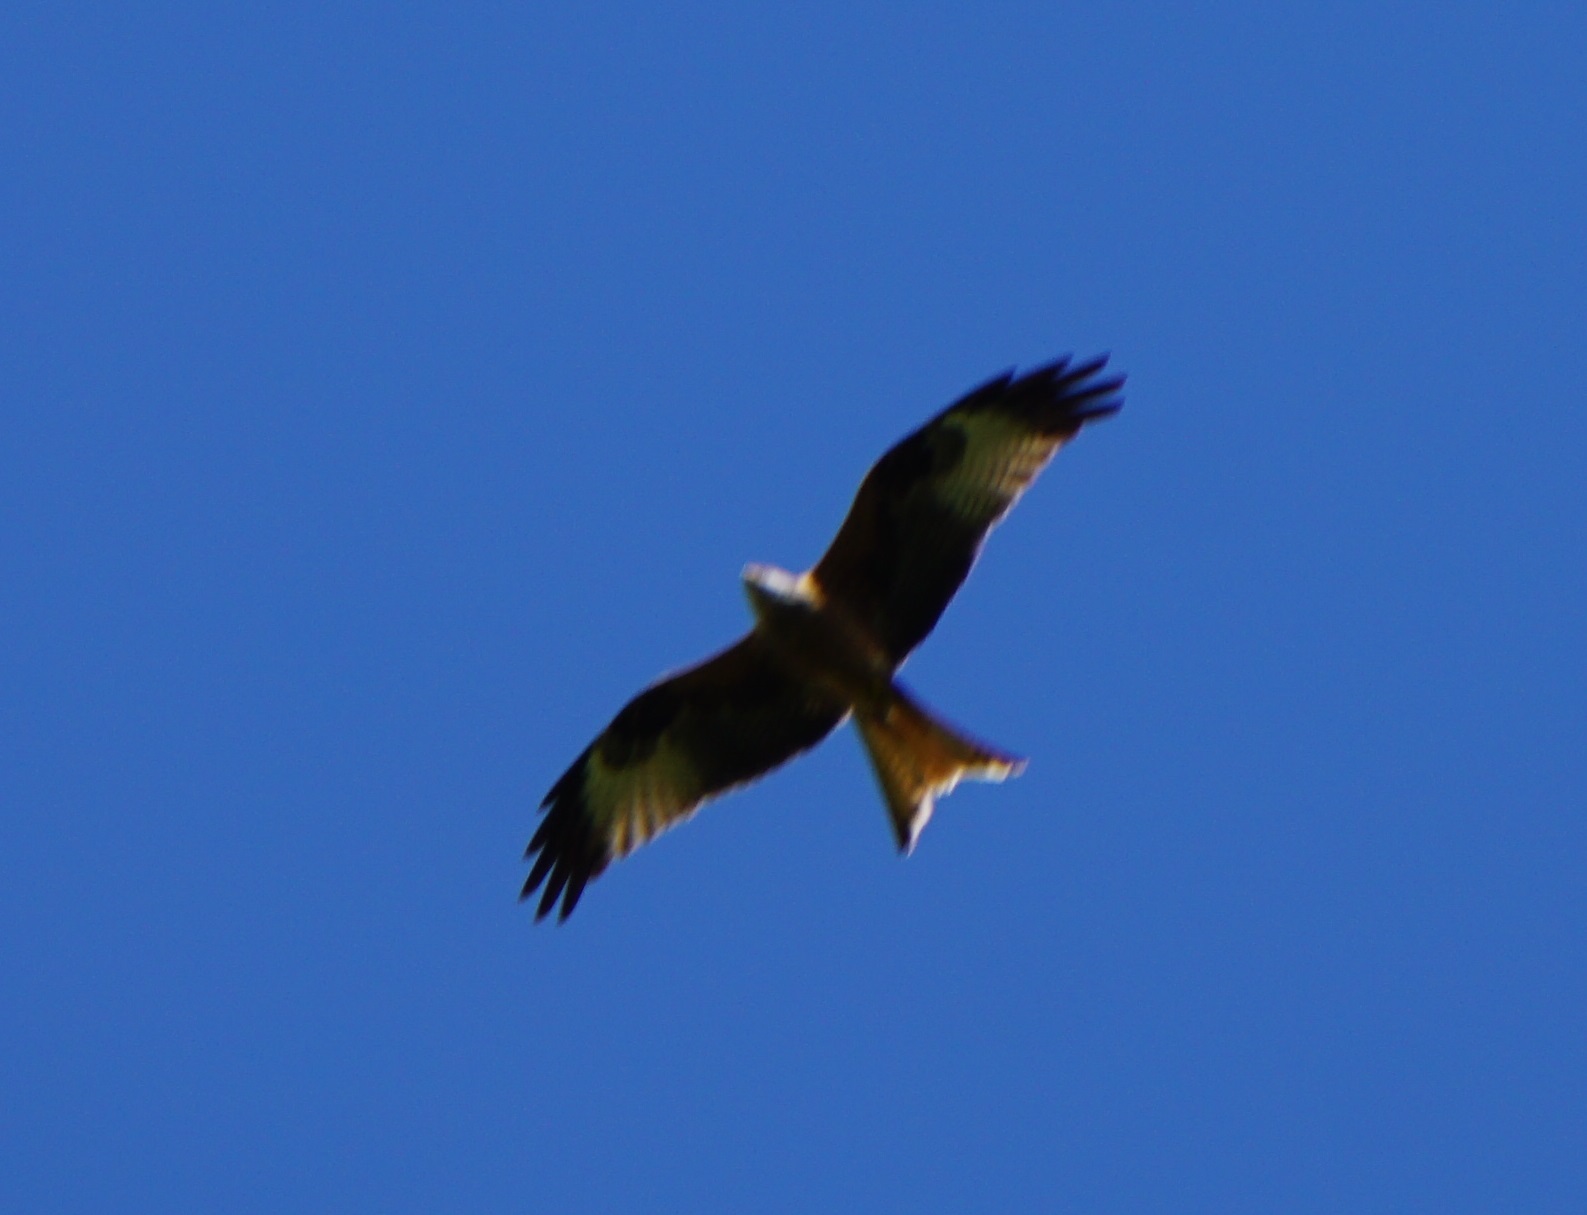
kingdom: Animalia
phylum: Chordata
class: Aves
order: Accipitriformes
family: Accipitridae
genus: Milvus
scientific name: Milvus milvus
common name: Red kite
